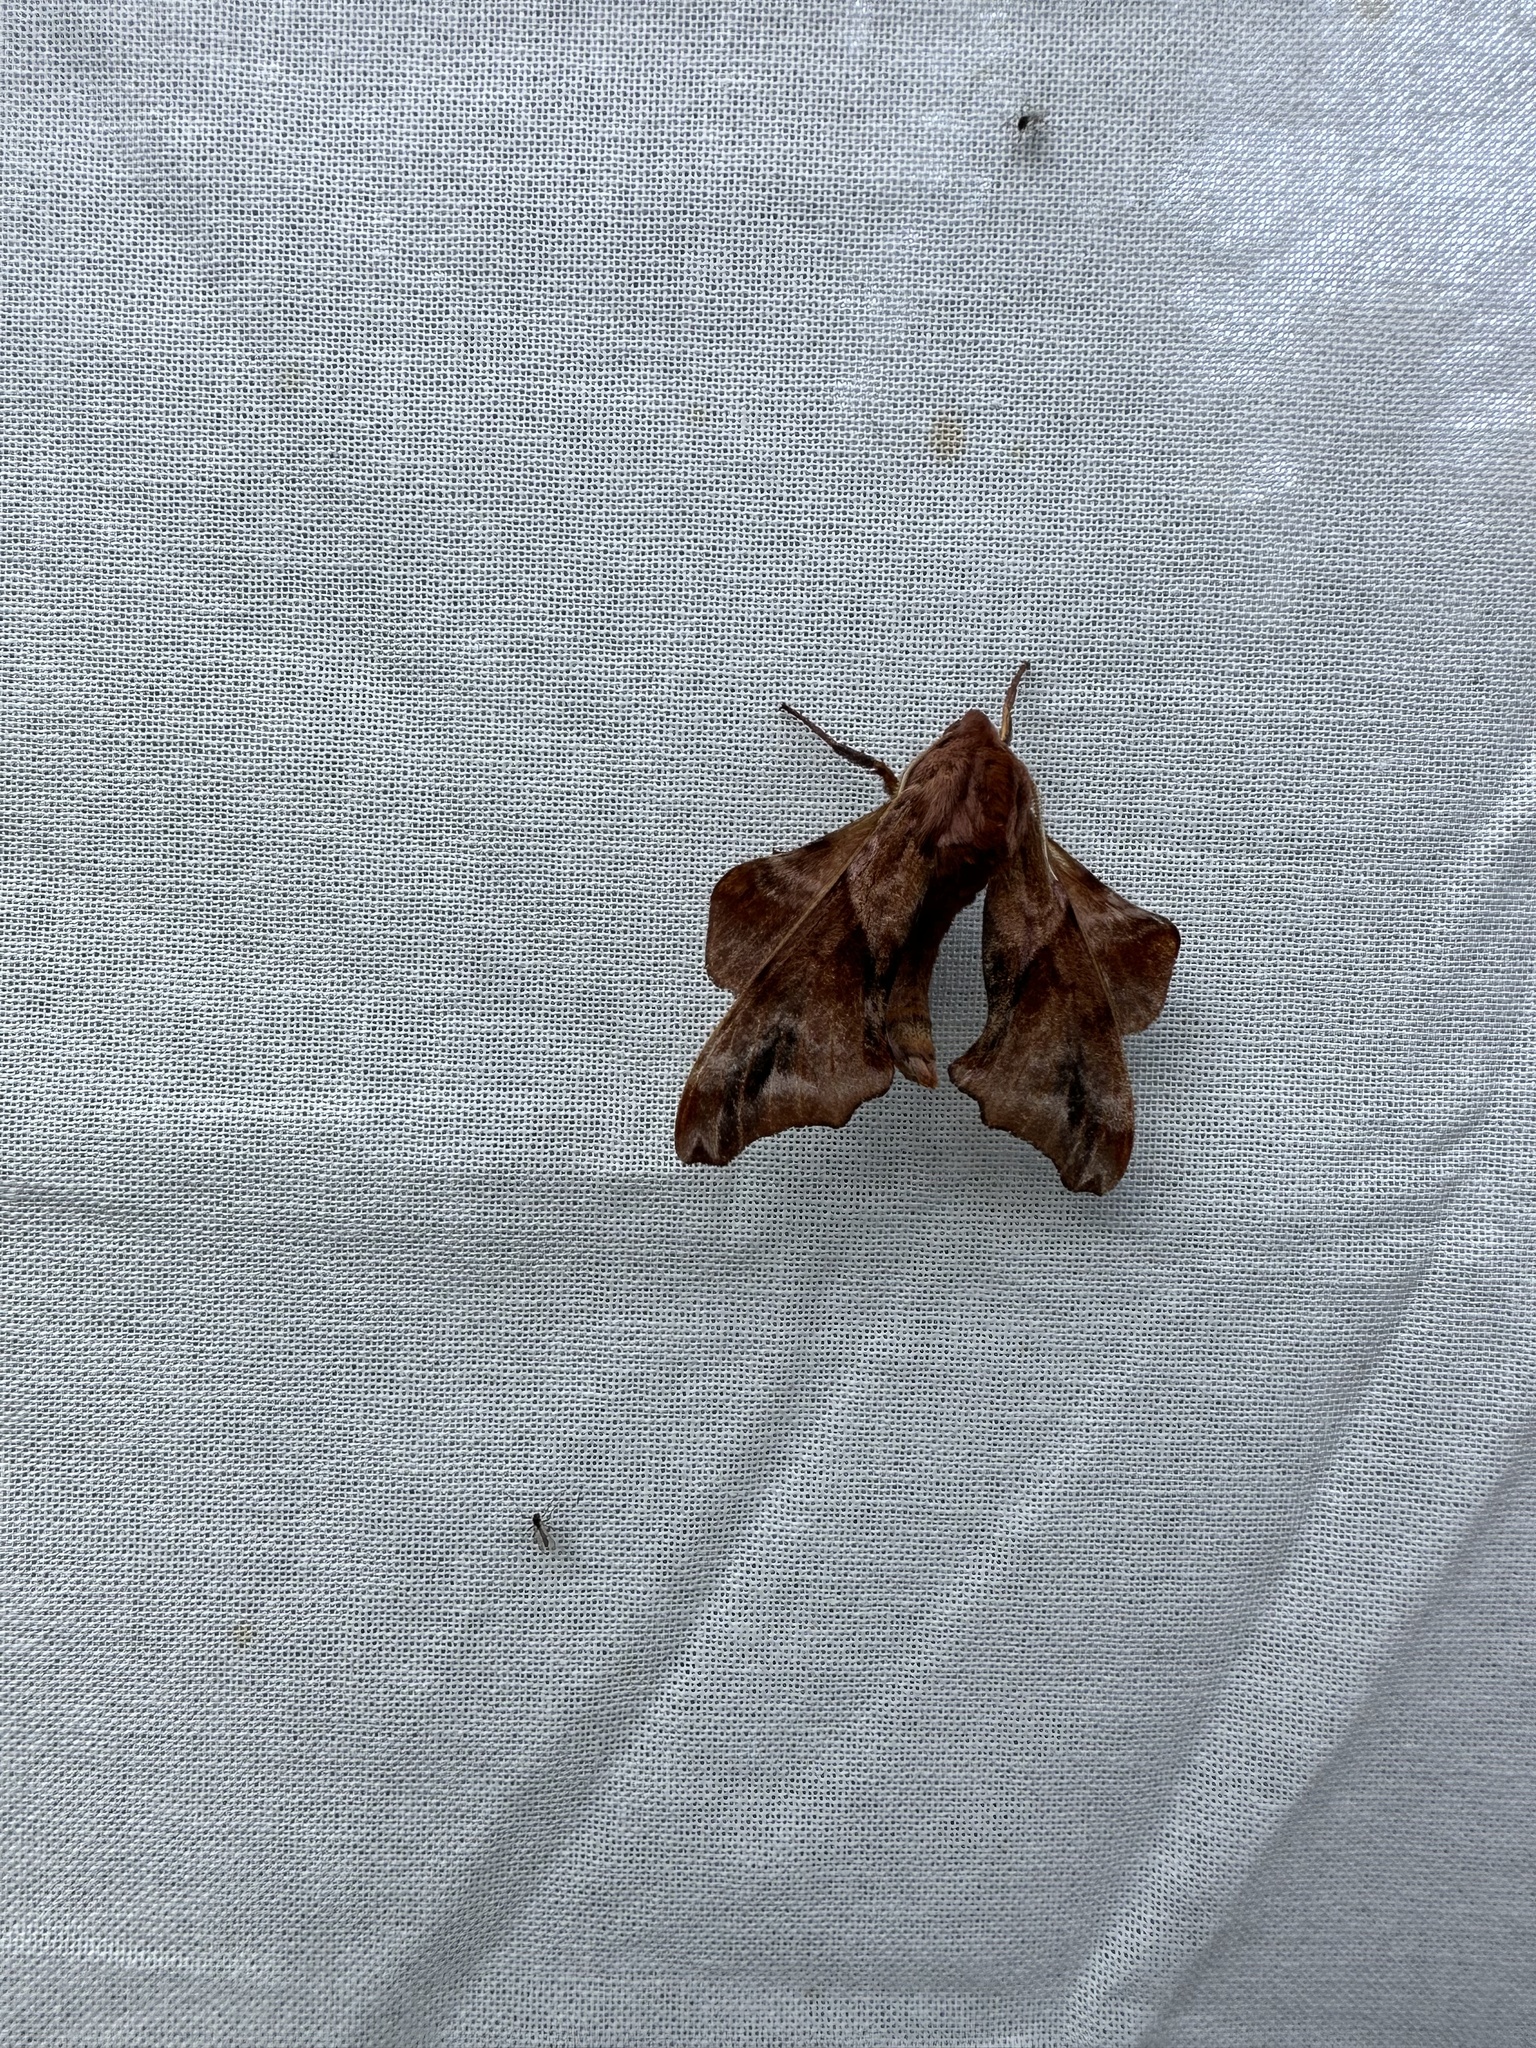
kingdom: Animalia
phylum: Arthropoda
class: Insecta
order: Lepidoptera
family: Sphingidae
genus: Paonias
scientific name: Paonias myops
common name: Small-eyed sphinx
